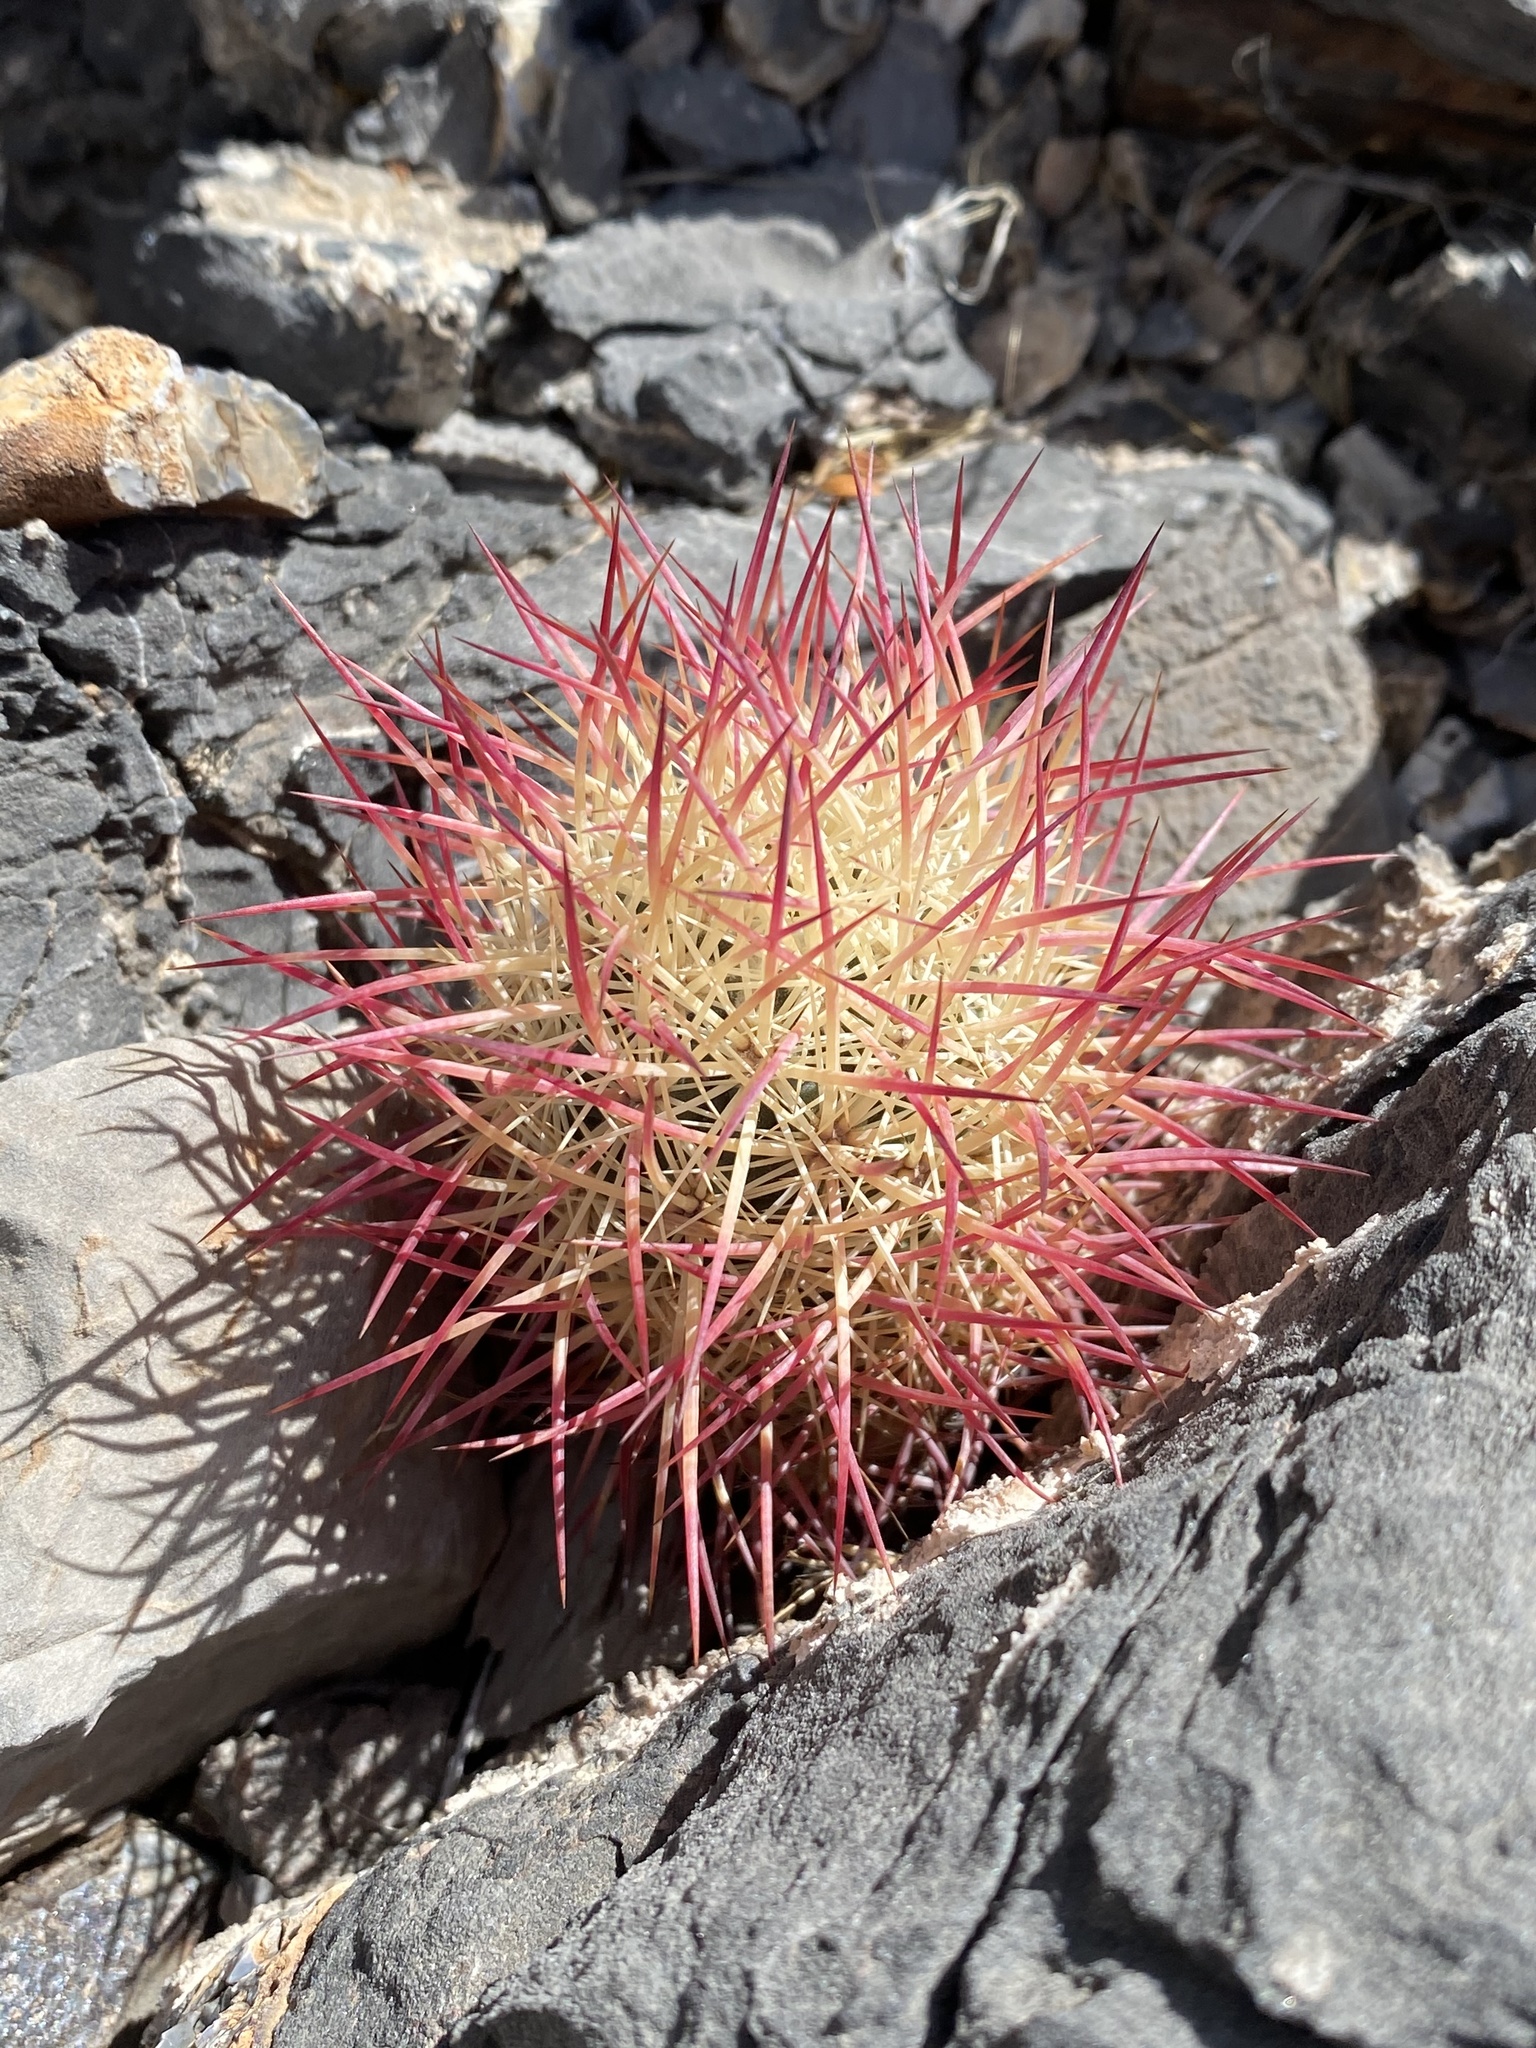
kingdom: Plantae
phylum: Tracheophyta
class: Magnoliopsida
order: Caryophyllales
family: Cactaceae
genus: Sclerocactus
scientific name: Sclerocactus johnsonii
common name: Eight-spine fishhook cactus
